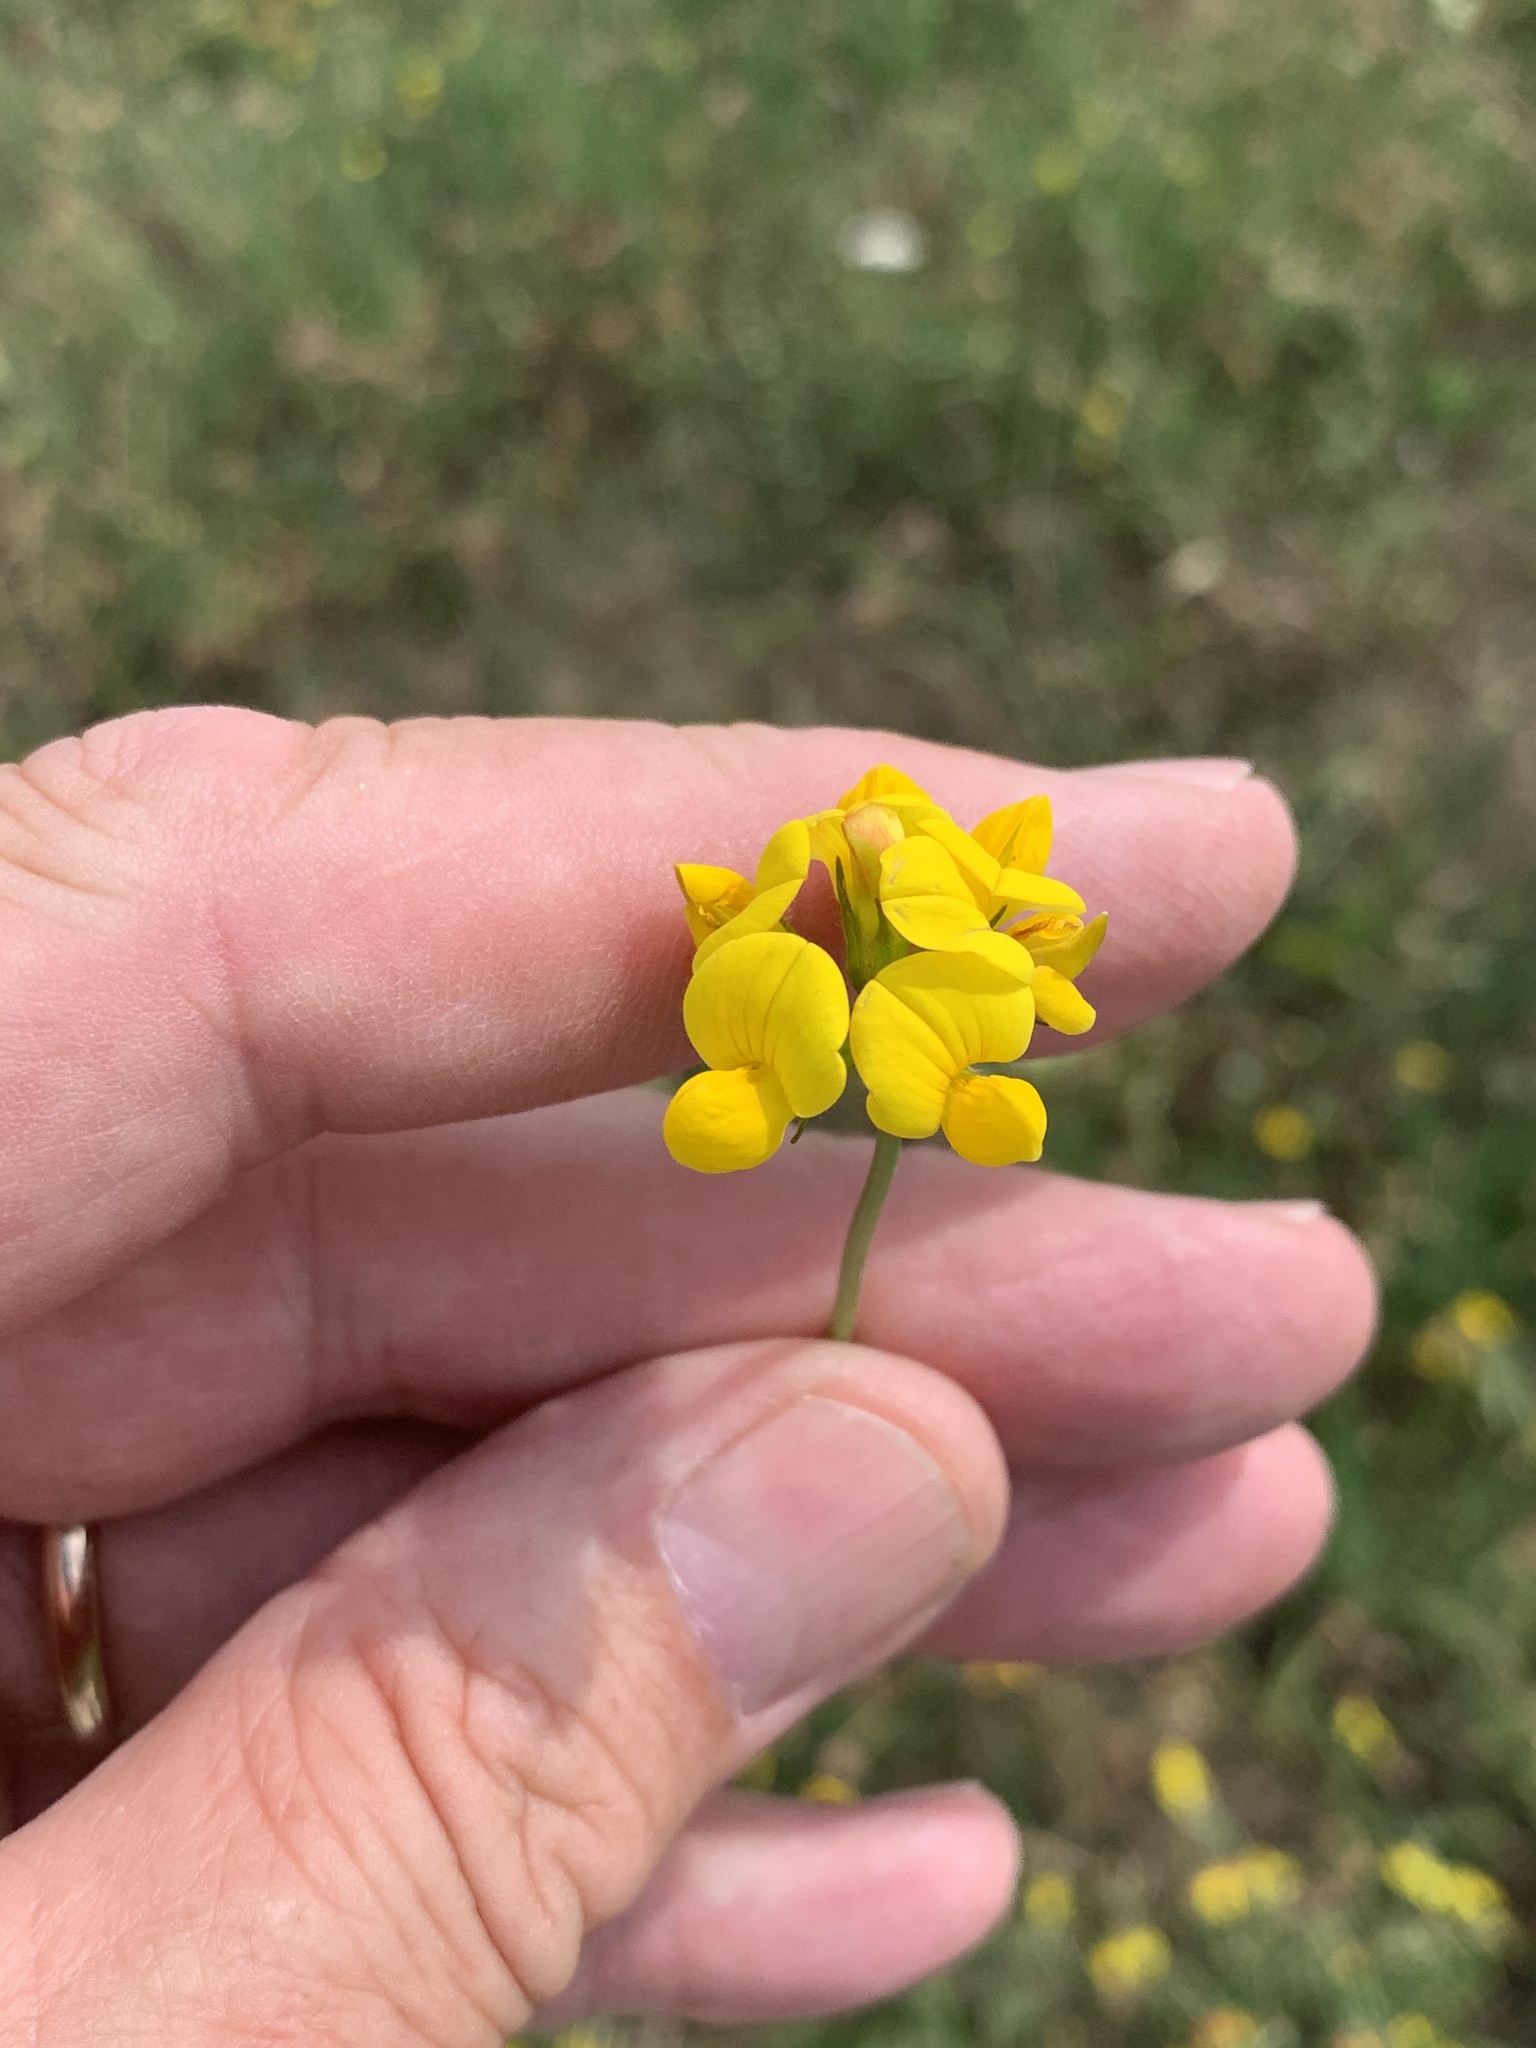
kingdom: Plantae
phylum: Tracheophyta
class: Magnoliopsida
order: Fabales
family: Fabaceae
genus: Lotus
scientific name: Lotus corniculatus
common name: Common bird's-foot-trefoil
